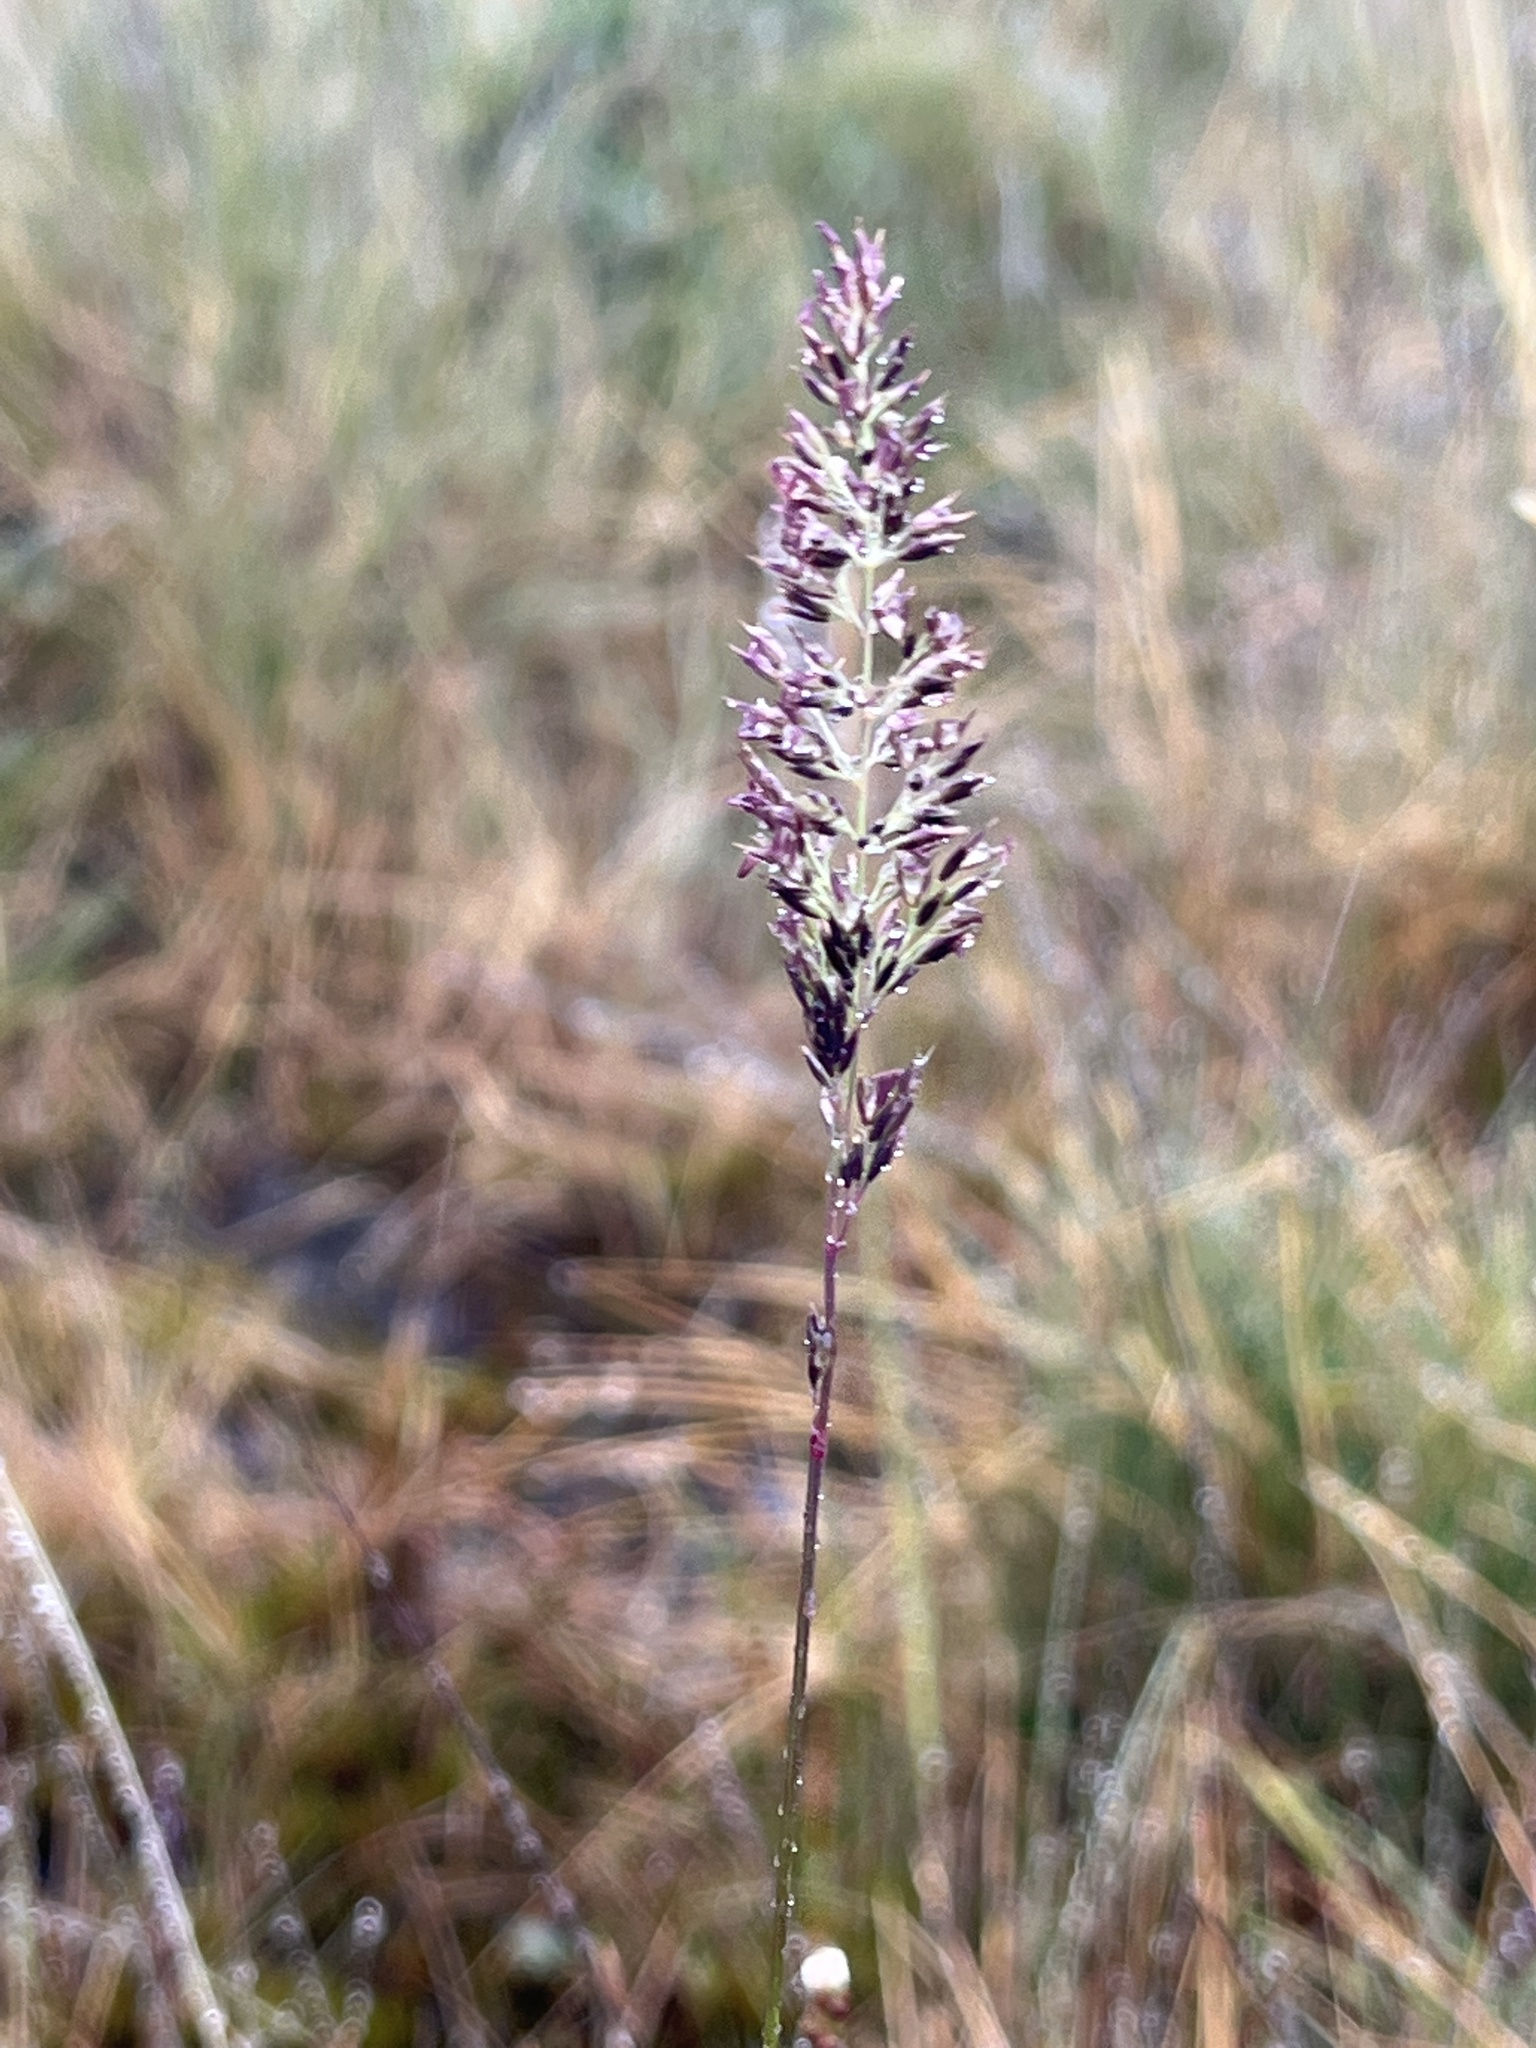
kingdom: Plantae
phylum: Tracheophyta
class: Liliopsida
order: Poales
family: Poaceae
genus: Calamagrostis
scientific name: Calamagrostis stricta
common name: Narrow small-reed
